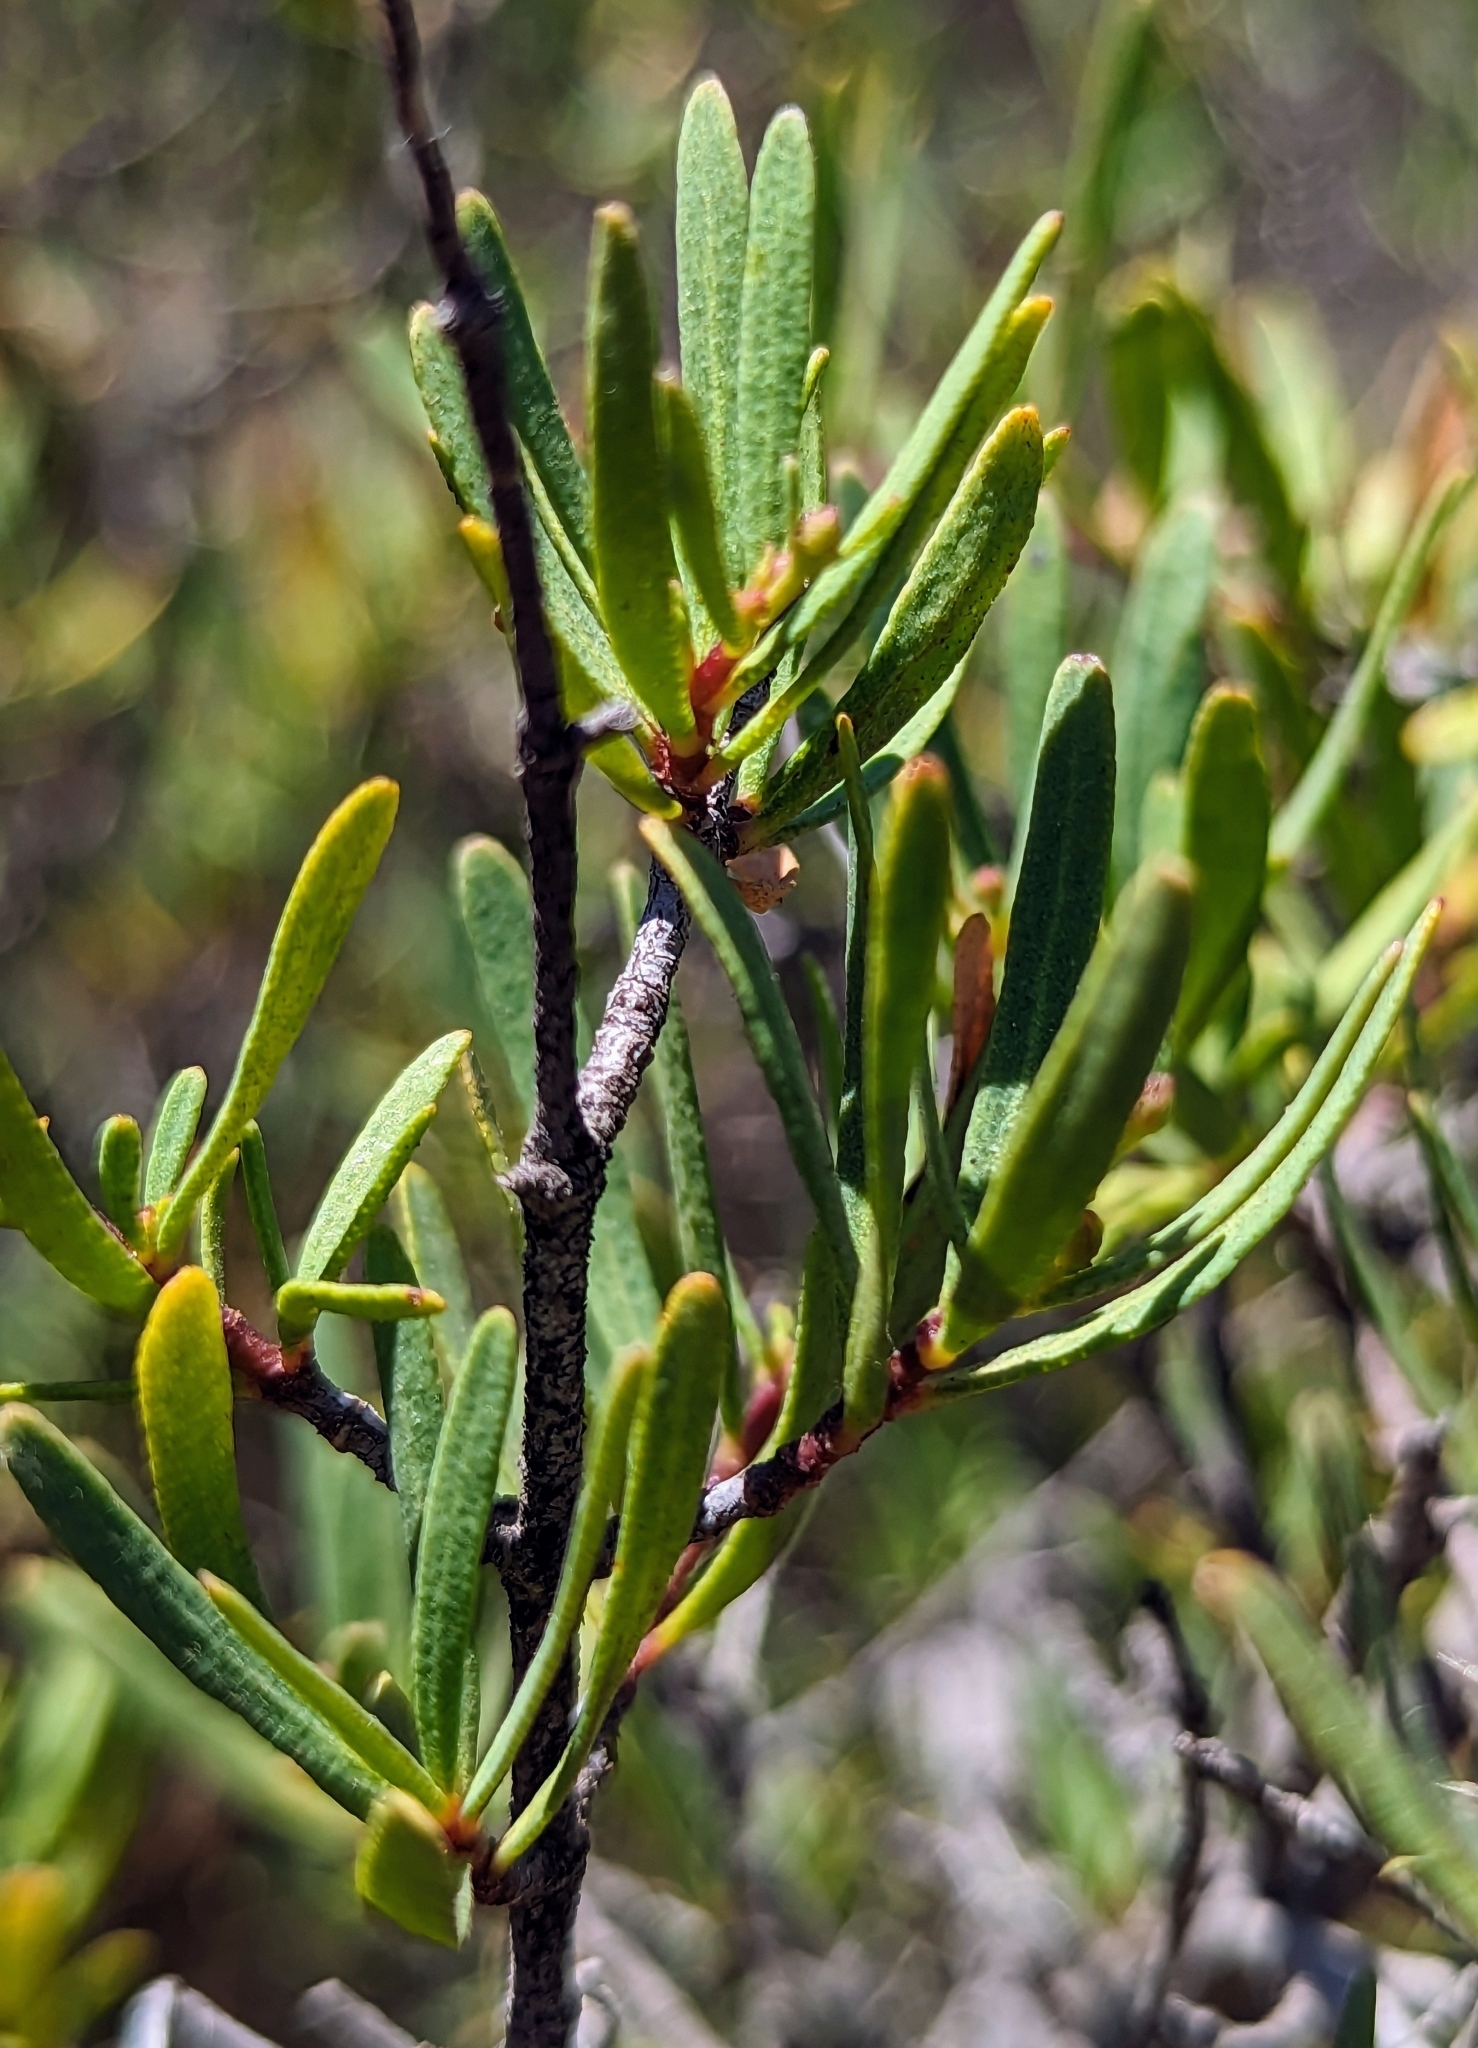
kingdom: Plantae
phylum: Tracheophyta
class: Magnoliopsida
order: Sapindales
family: Rutaceae
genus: Cneoridium
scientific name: Cneoridium dumosum
